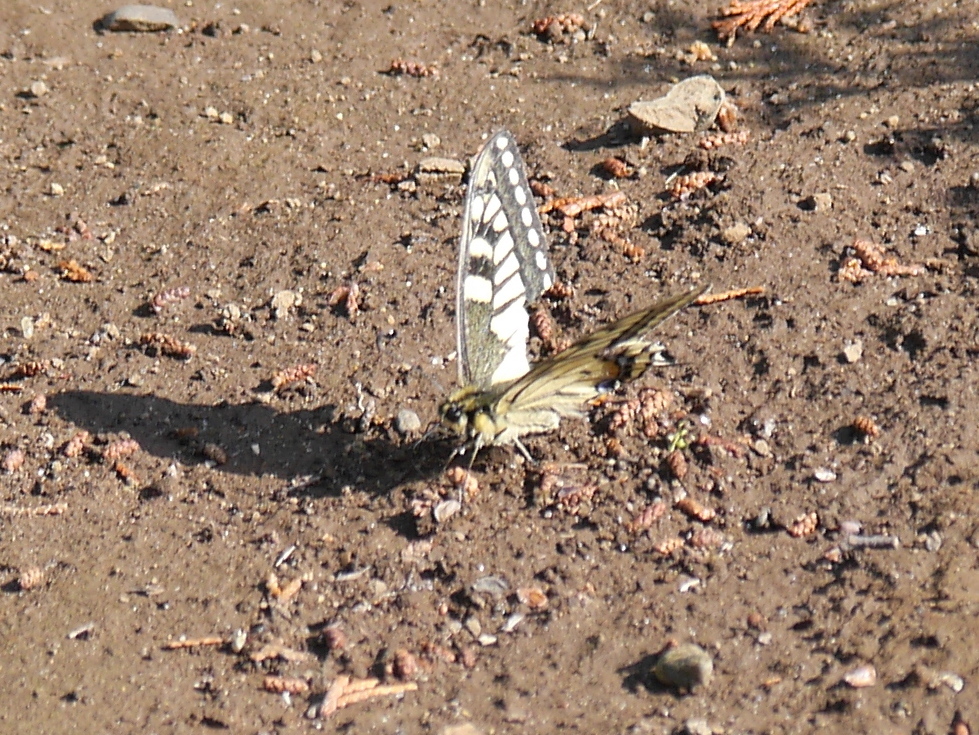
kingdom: Animalia
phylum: Arthropoda
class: Insecta
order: Lepidoptera
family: Papilionidae
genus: Papilio
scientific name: Papilio machaon
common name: Swallowtail
